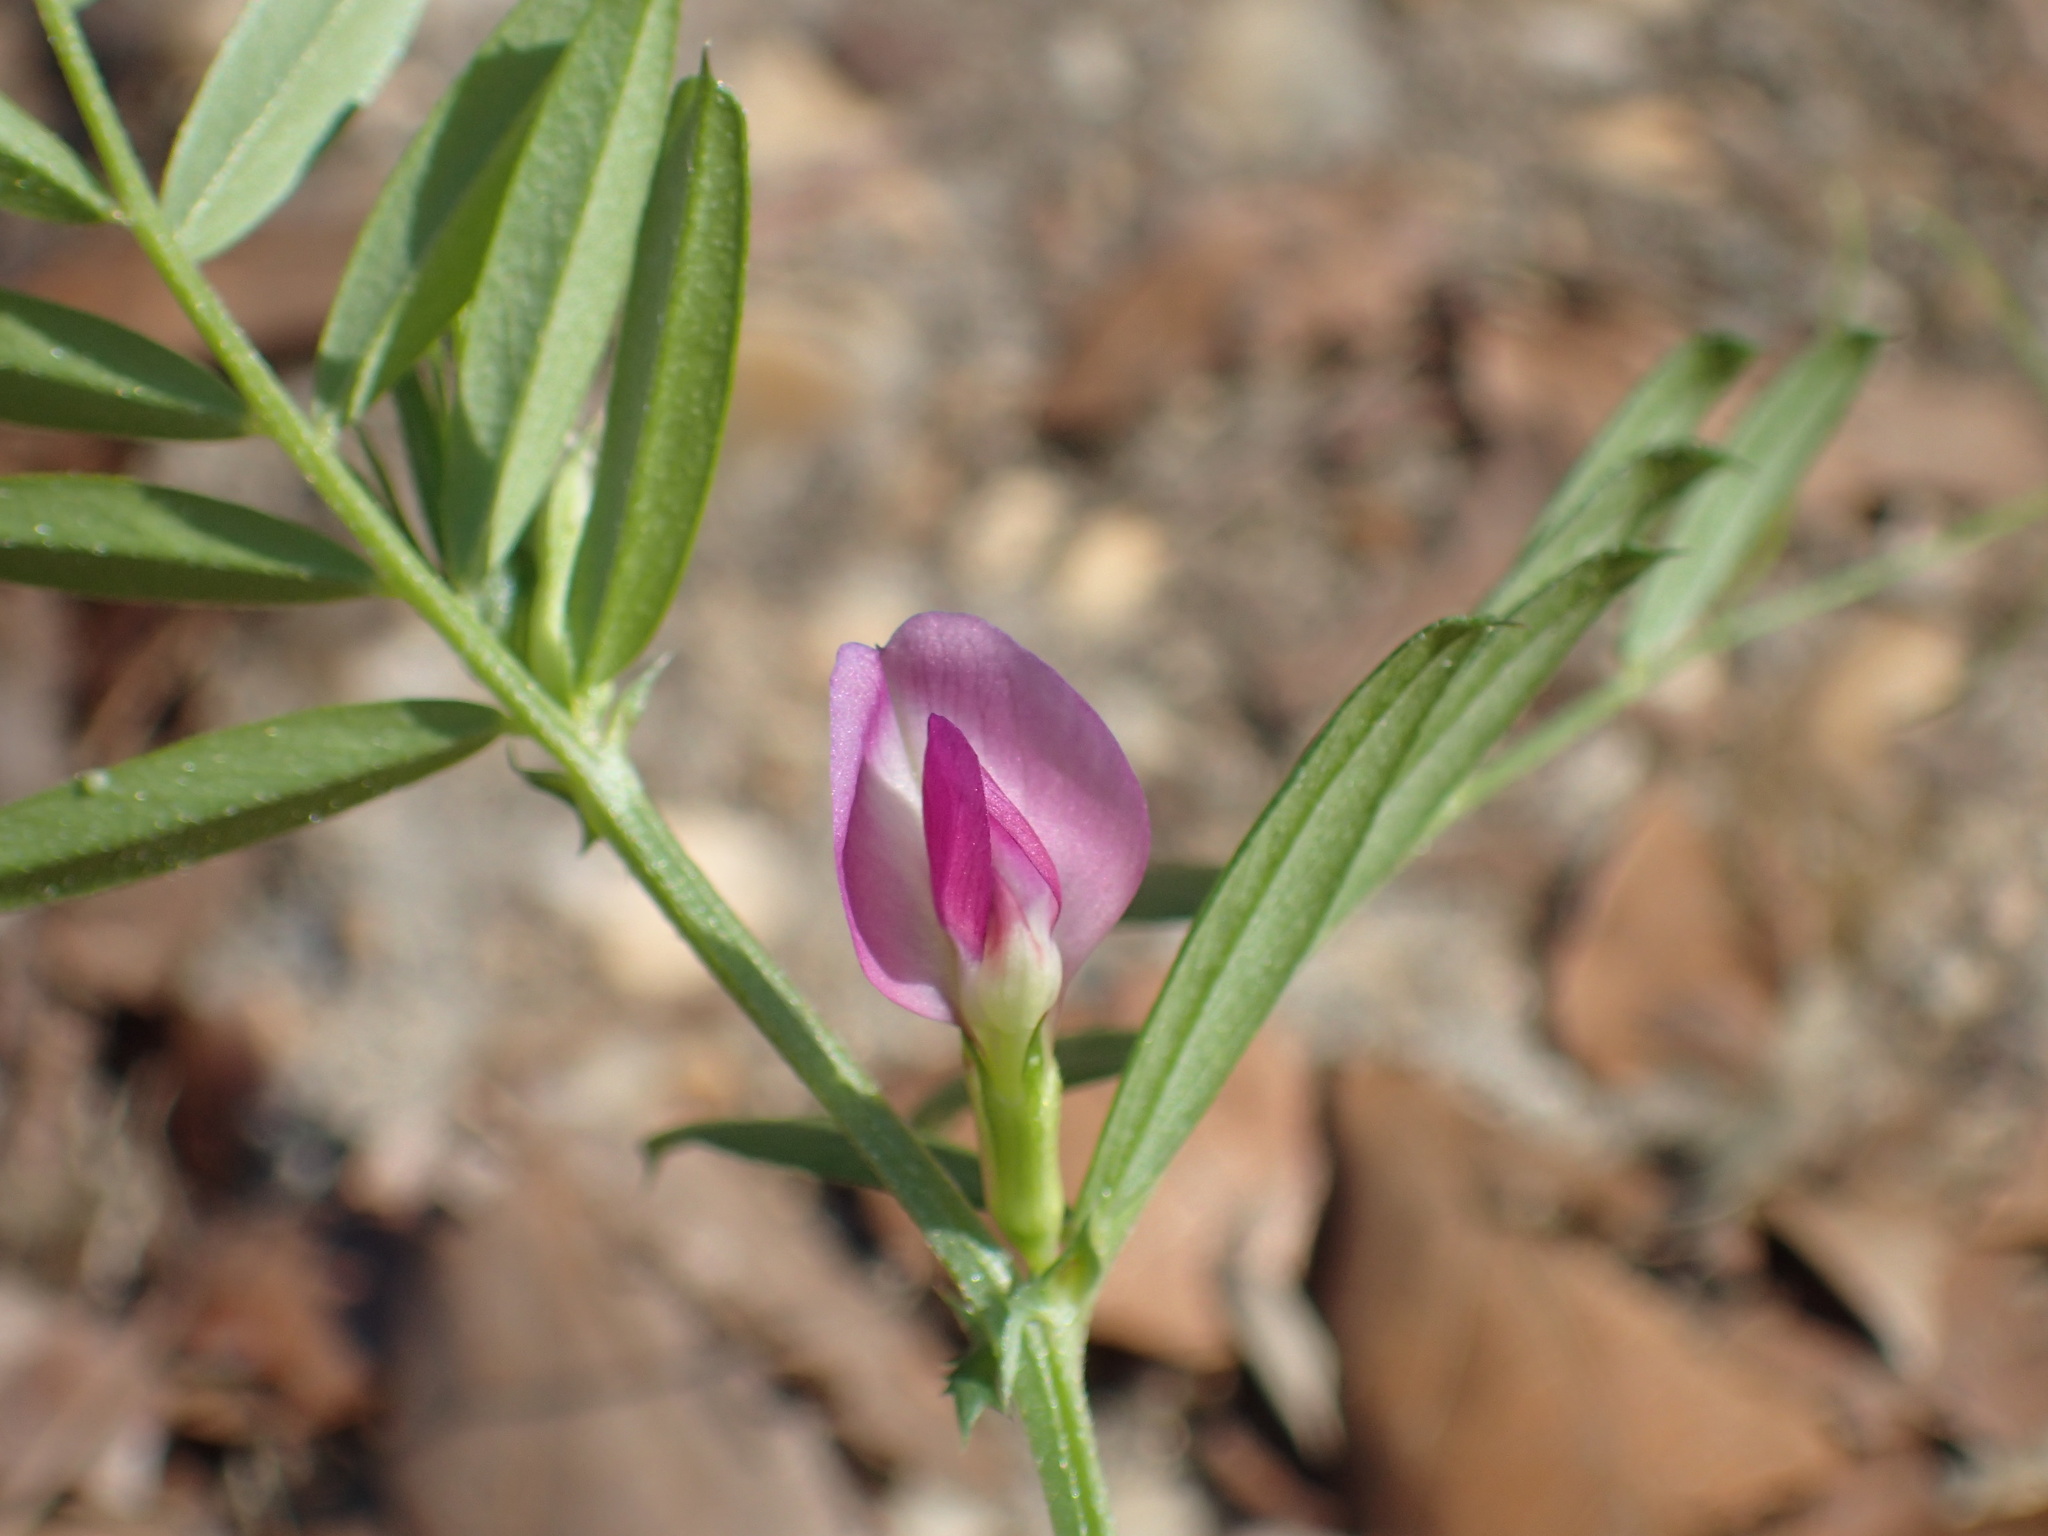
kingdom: Plantae
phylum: Tracheophyta
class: Magnoliopsida
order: Fabales
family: Fabaceae
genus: Vicia
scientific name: Vicia sativa
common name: Garden vetch
